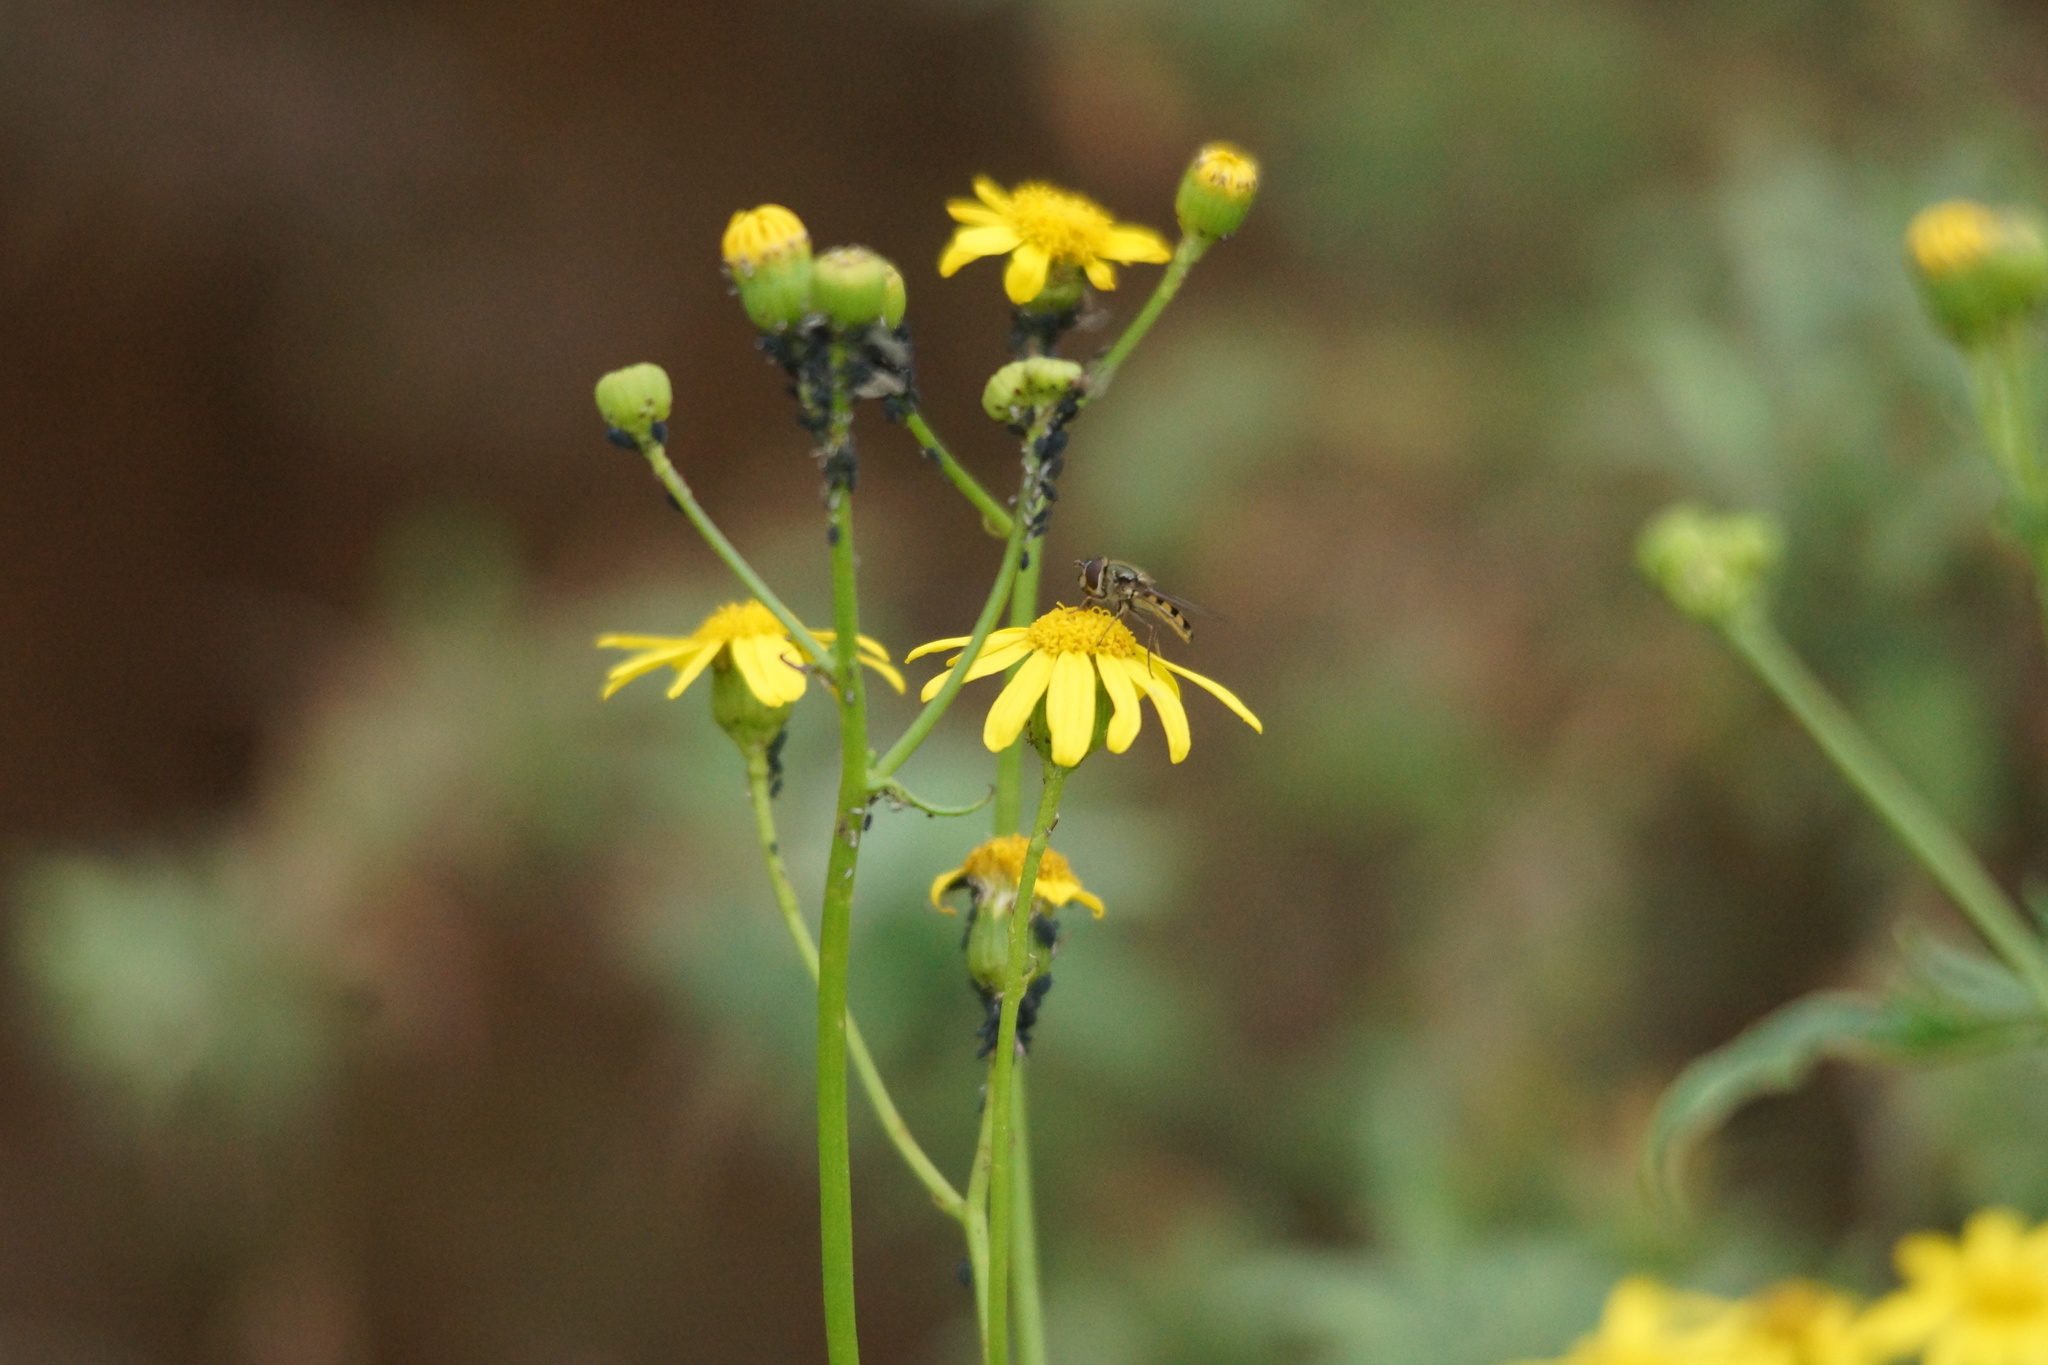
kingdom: Plantae
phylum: Tracheophyta
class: Magnoliopsida
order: Asterales
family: Asteraceae
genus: Senecio
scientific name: Senecio pinnatifolius
